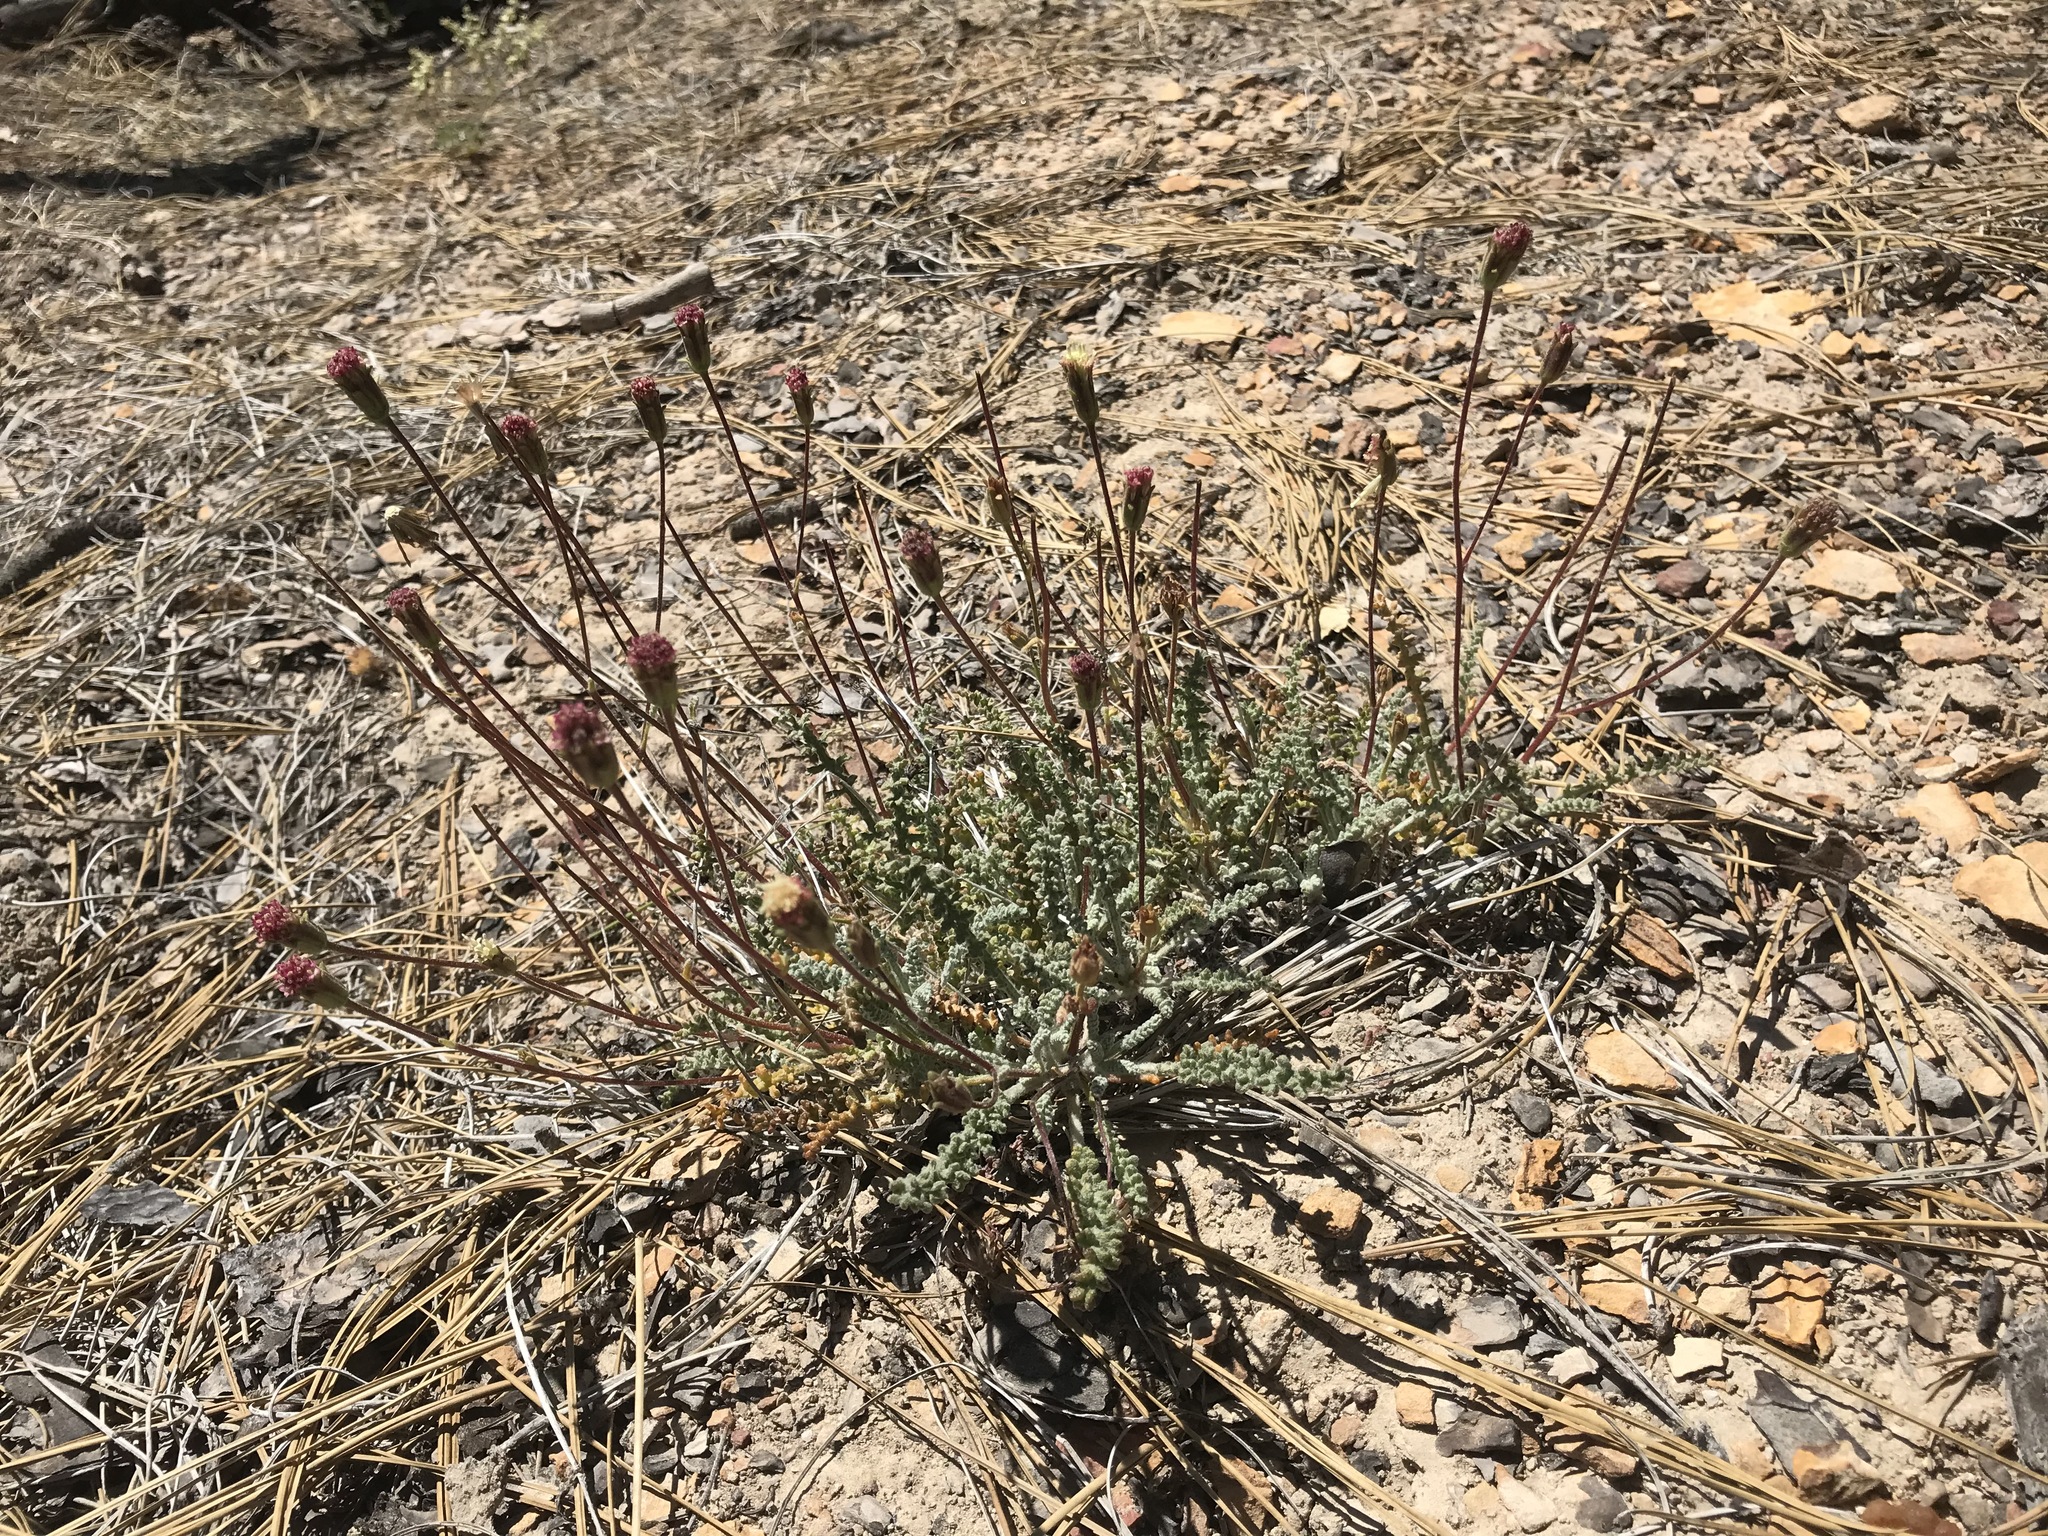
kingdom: Plantae
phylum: Tracheophyta
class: Magnoliopsida
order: Asterales
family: Asteraceae
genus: Chaenactis
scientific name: Chaenactis santolinoides
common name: Santolina pincushion
